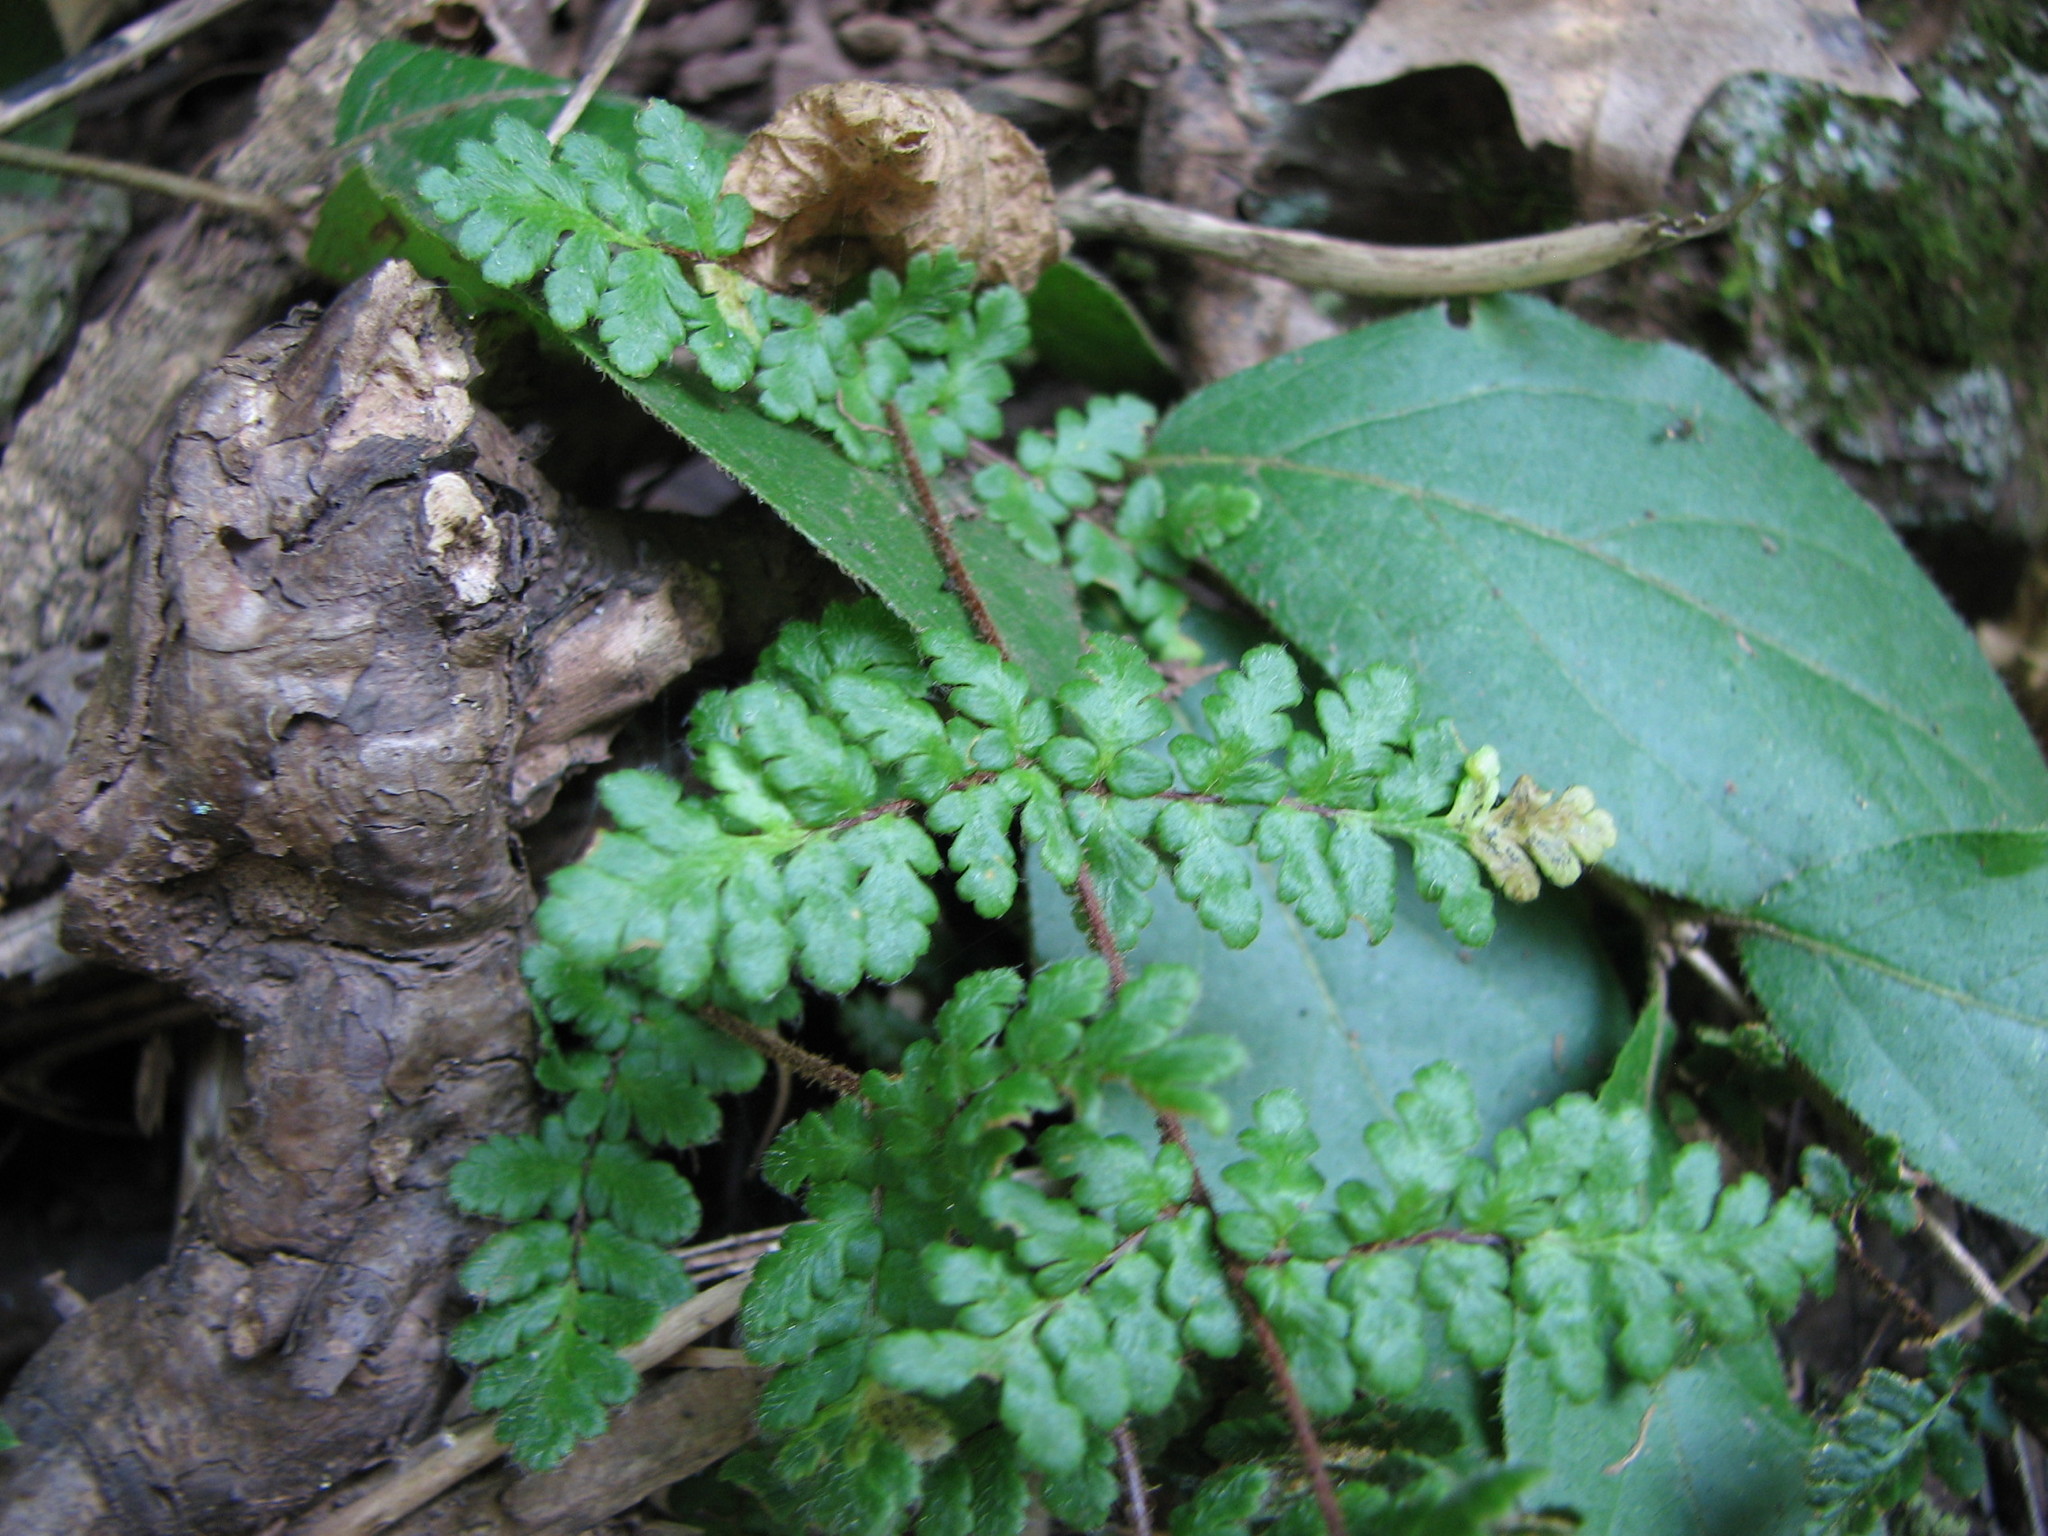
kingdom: Plantae
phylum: Tracheophyta
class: Polypodiopsida
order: Polypodiales
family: Pteridaceae
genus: Myriopteris
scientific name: Myriopteris lanosa
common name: Hairy lip fern
